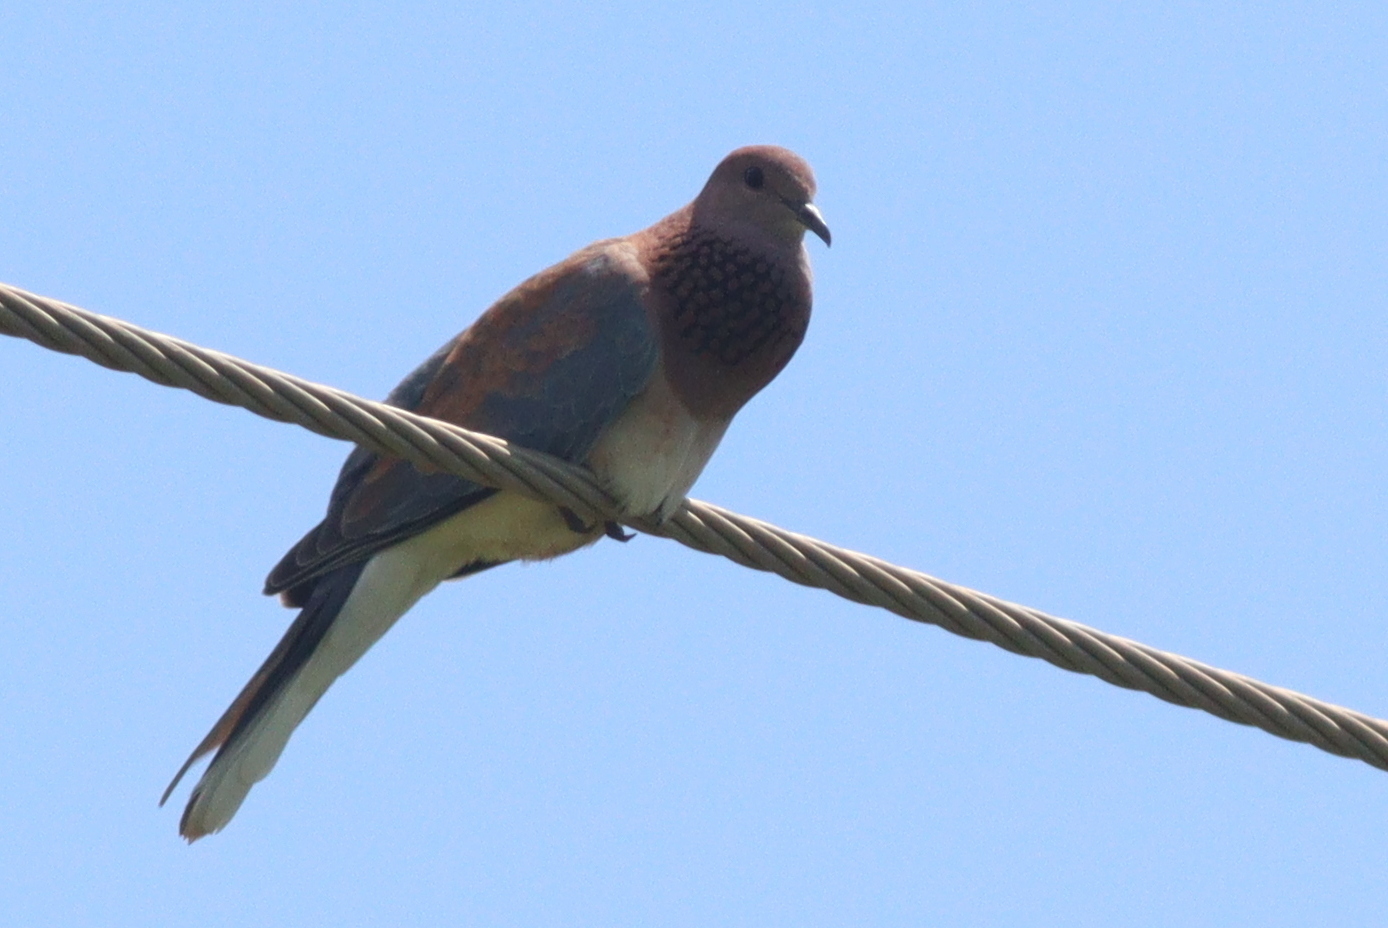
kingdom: Animalia
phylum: Chordata
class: Aves
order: Columbiformes
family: Columbidae
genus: Spilopelia
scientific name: Spilopelia senegalensis
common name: Laughing dove
